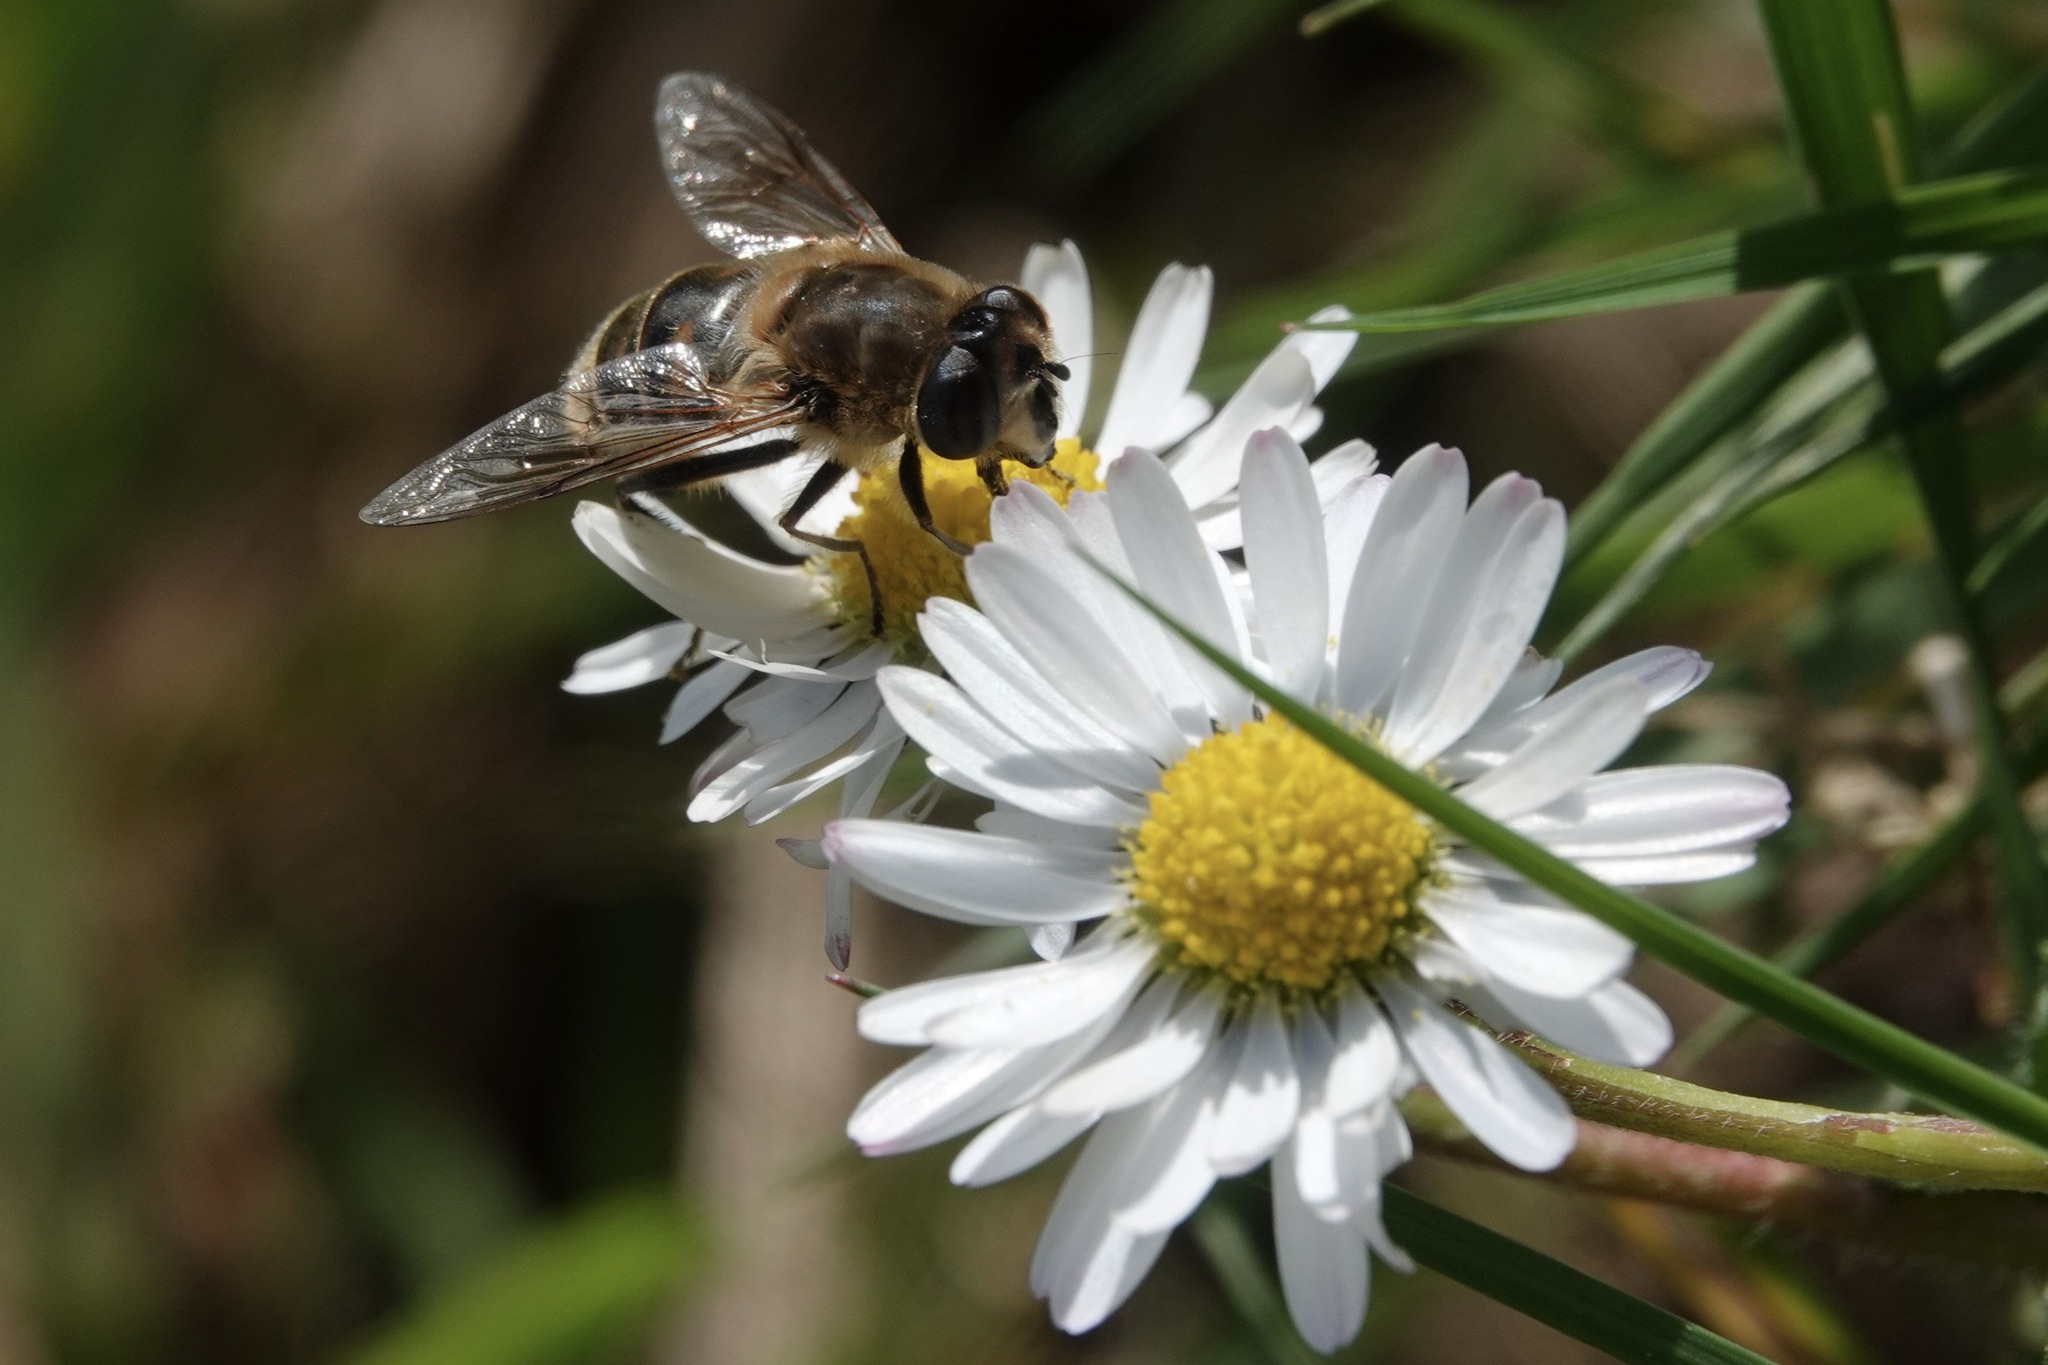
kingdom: Animalia
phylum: Arthropoda
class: Insecta
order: Diptera
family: Syrphidae
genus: Eristalis
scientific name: Eristalis tenax
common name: Drone fly
